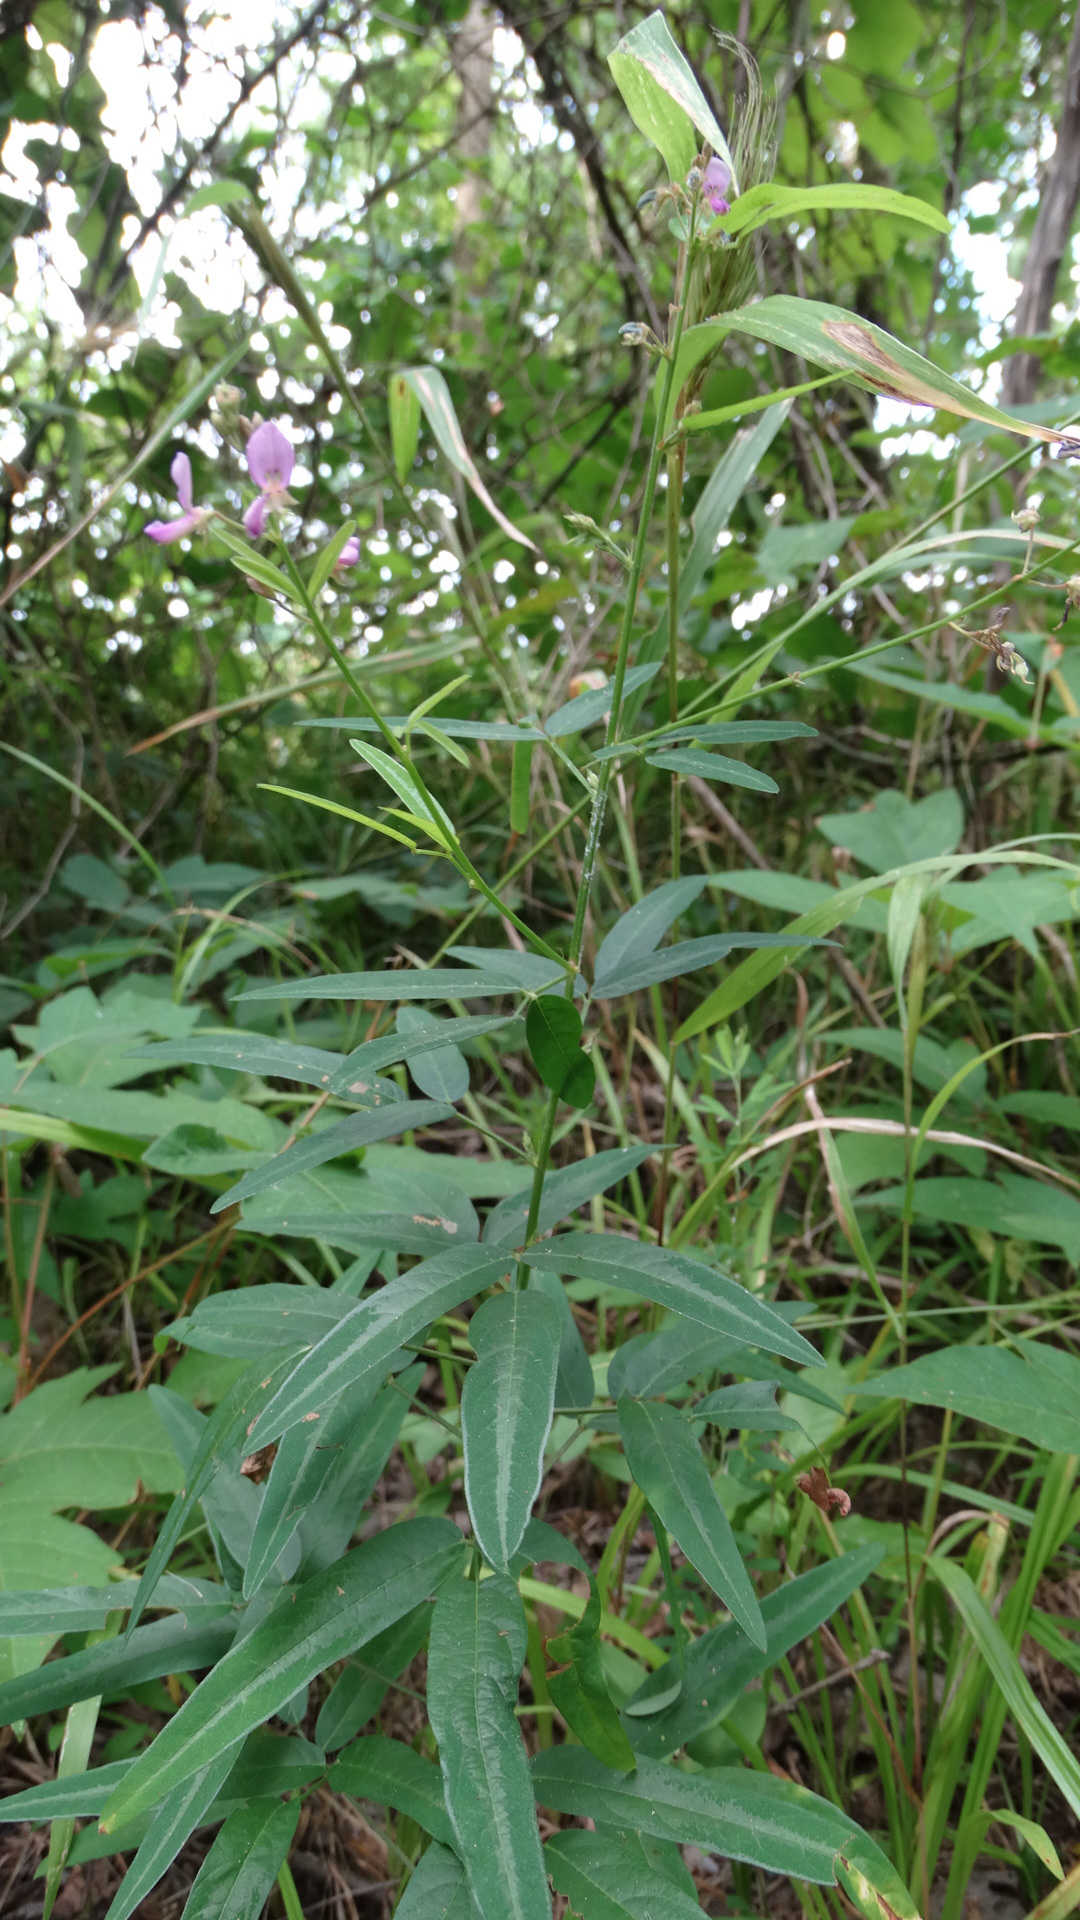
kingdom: Plantae
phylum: Tracheophyta
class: Magnoliopsida
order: Fabales
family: Fabaceae
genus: Desmodium
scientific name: Desmodium paniculatum
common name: Panicled tick-clover
